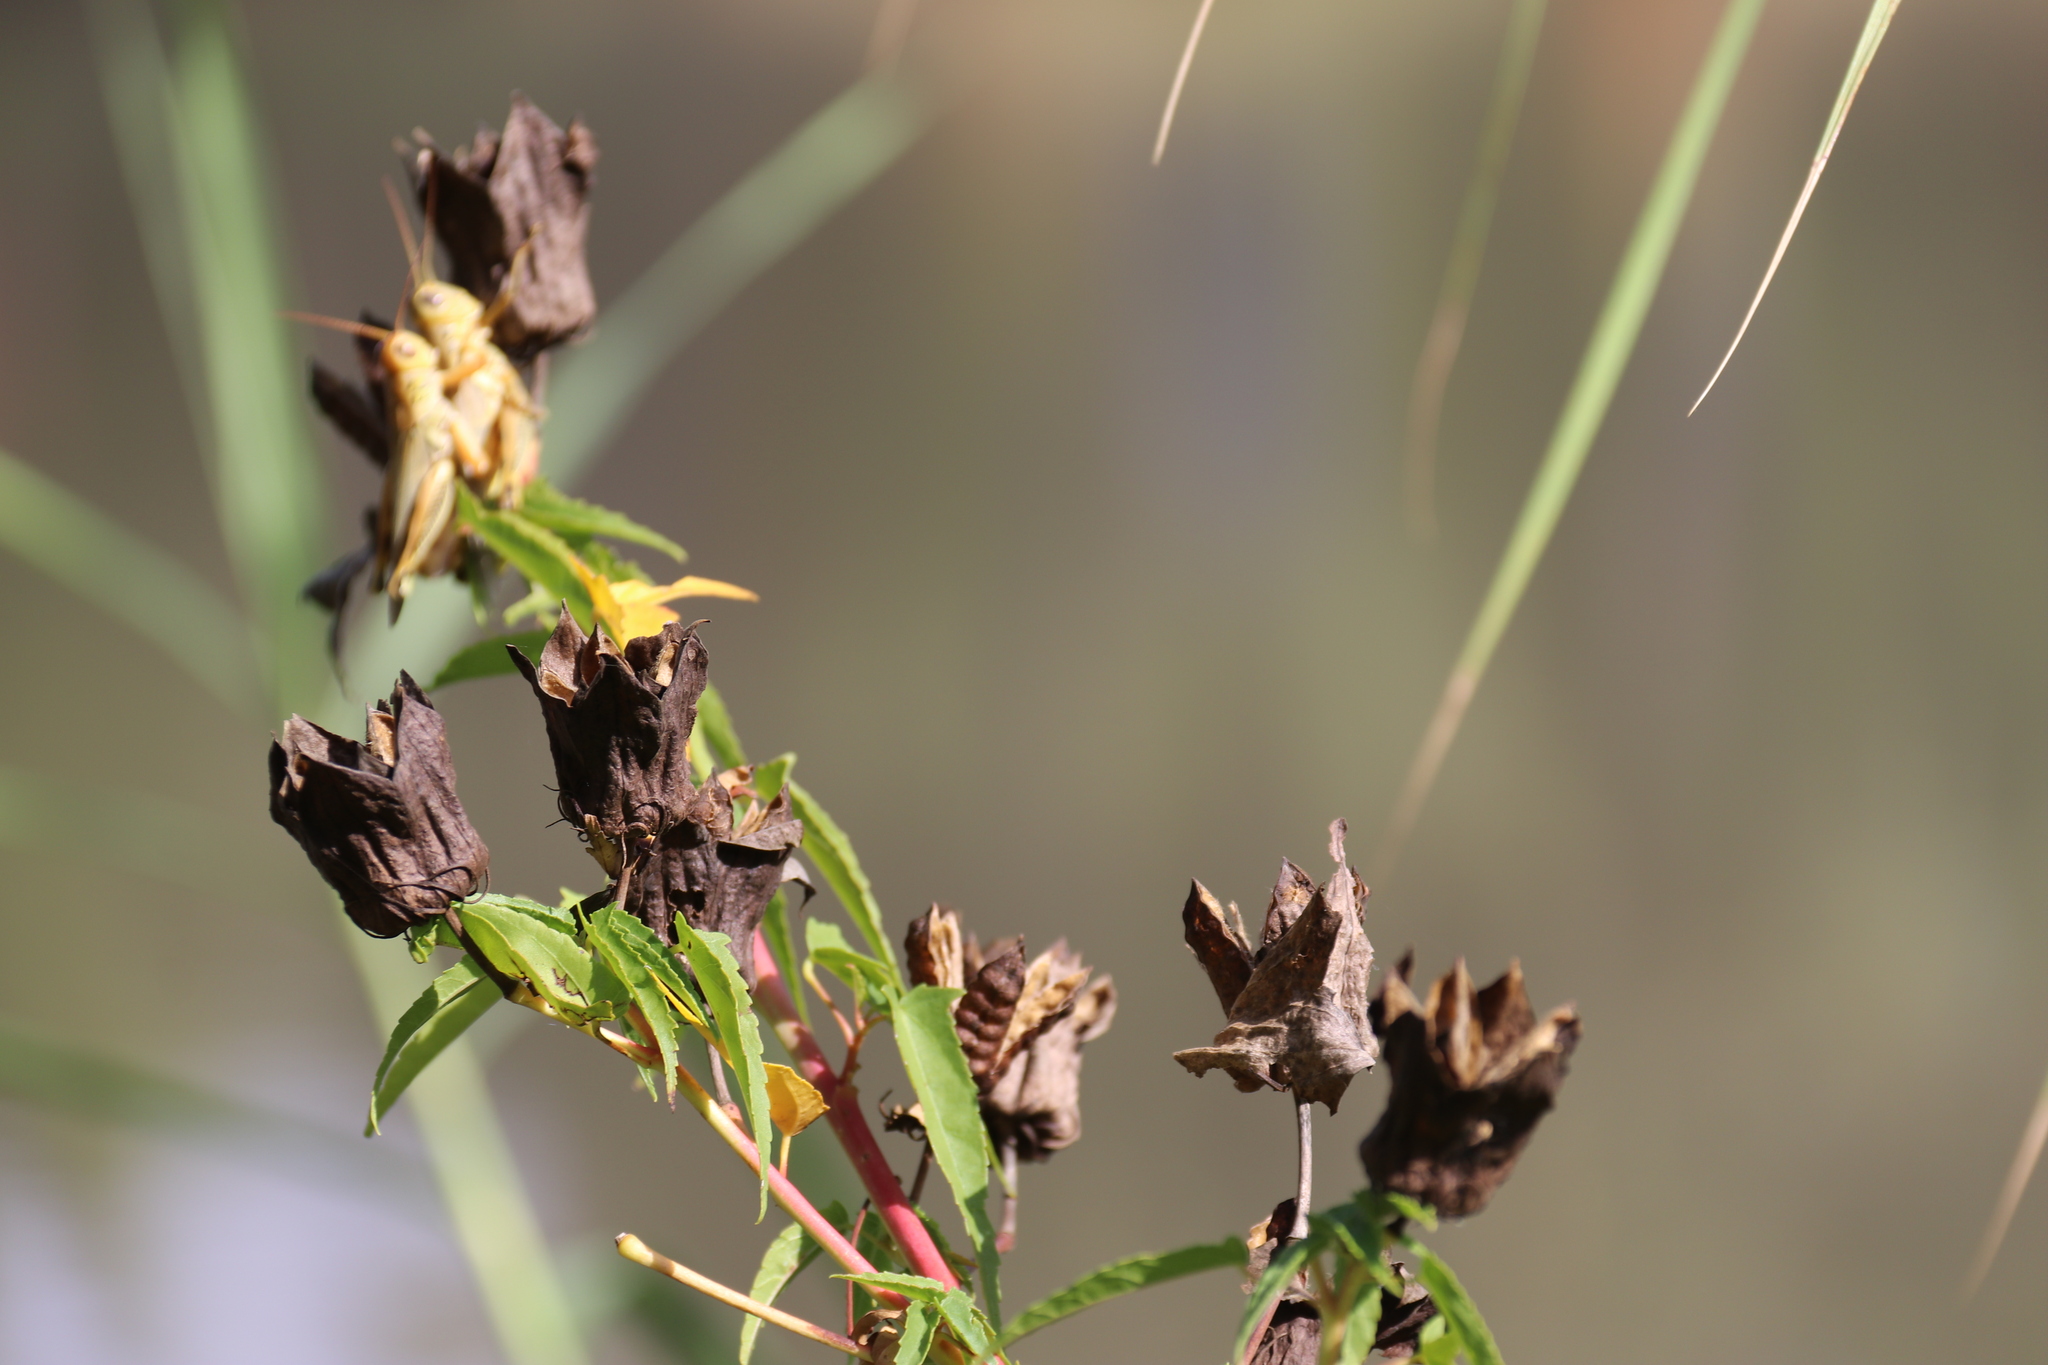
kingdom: Plantae
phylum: Tracheophyta
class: Magnoliopsida
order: Malvales
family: Malvaceae
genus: Hibiscus
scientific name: Hibiscus laevis
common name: Scarlet rose-mallow
